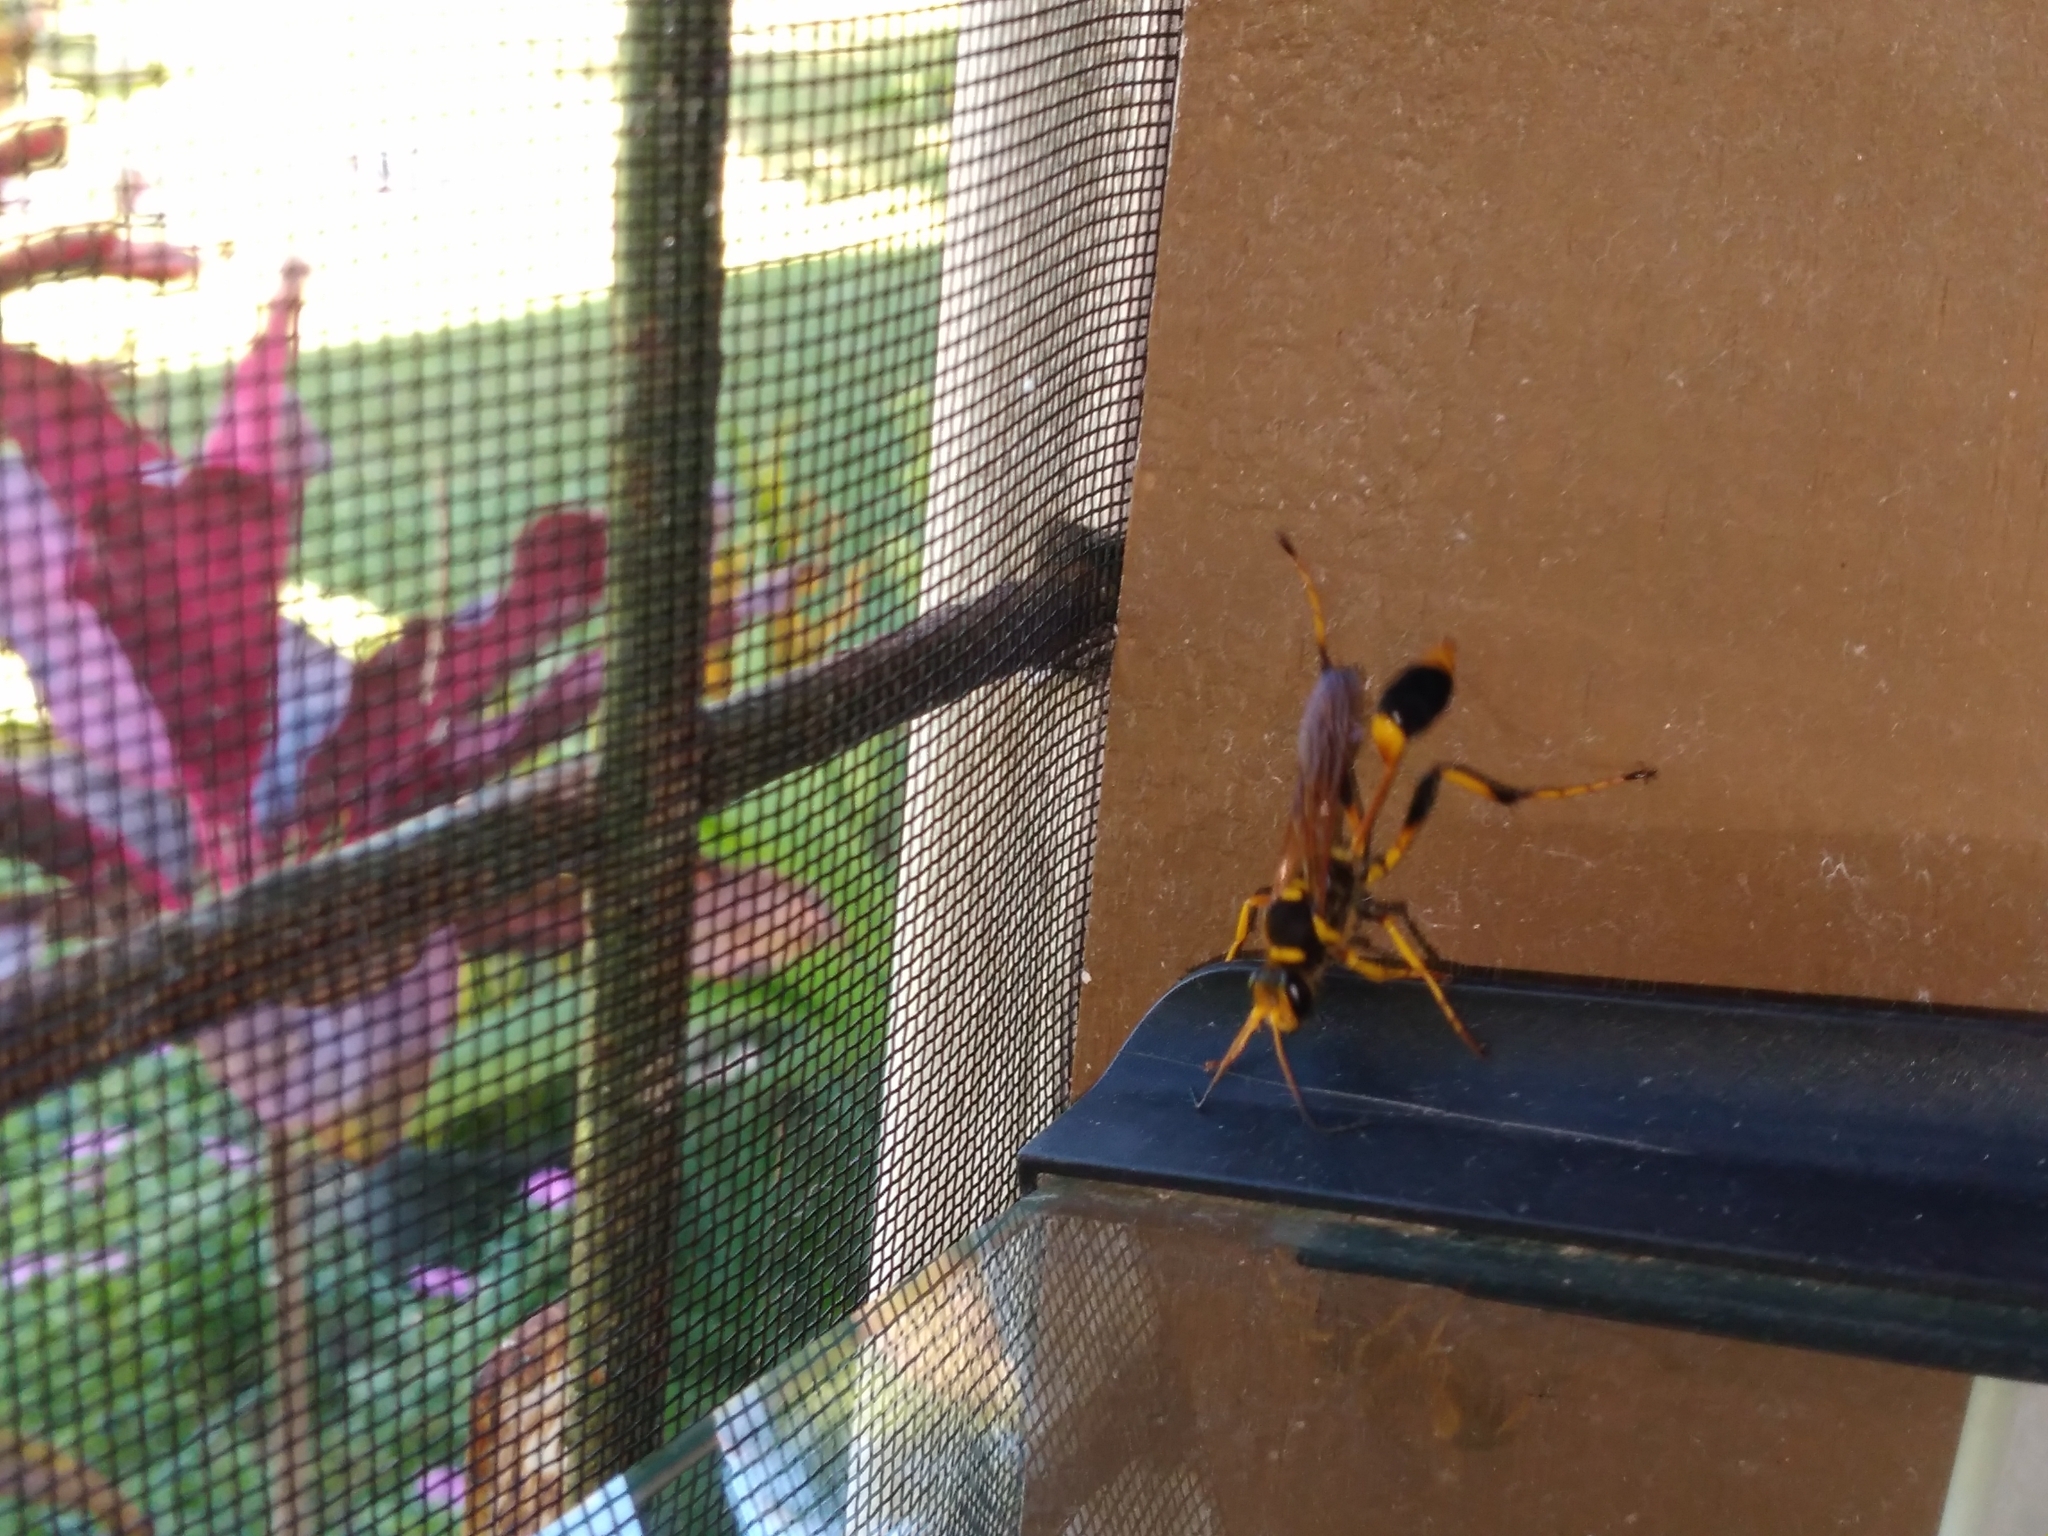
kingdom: Animalia
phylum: Arthropoda
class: Insecta
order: Hymenoptera
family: Sphecidae
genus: Sceliphron
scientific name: Sceliphron laetum
